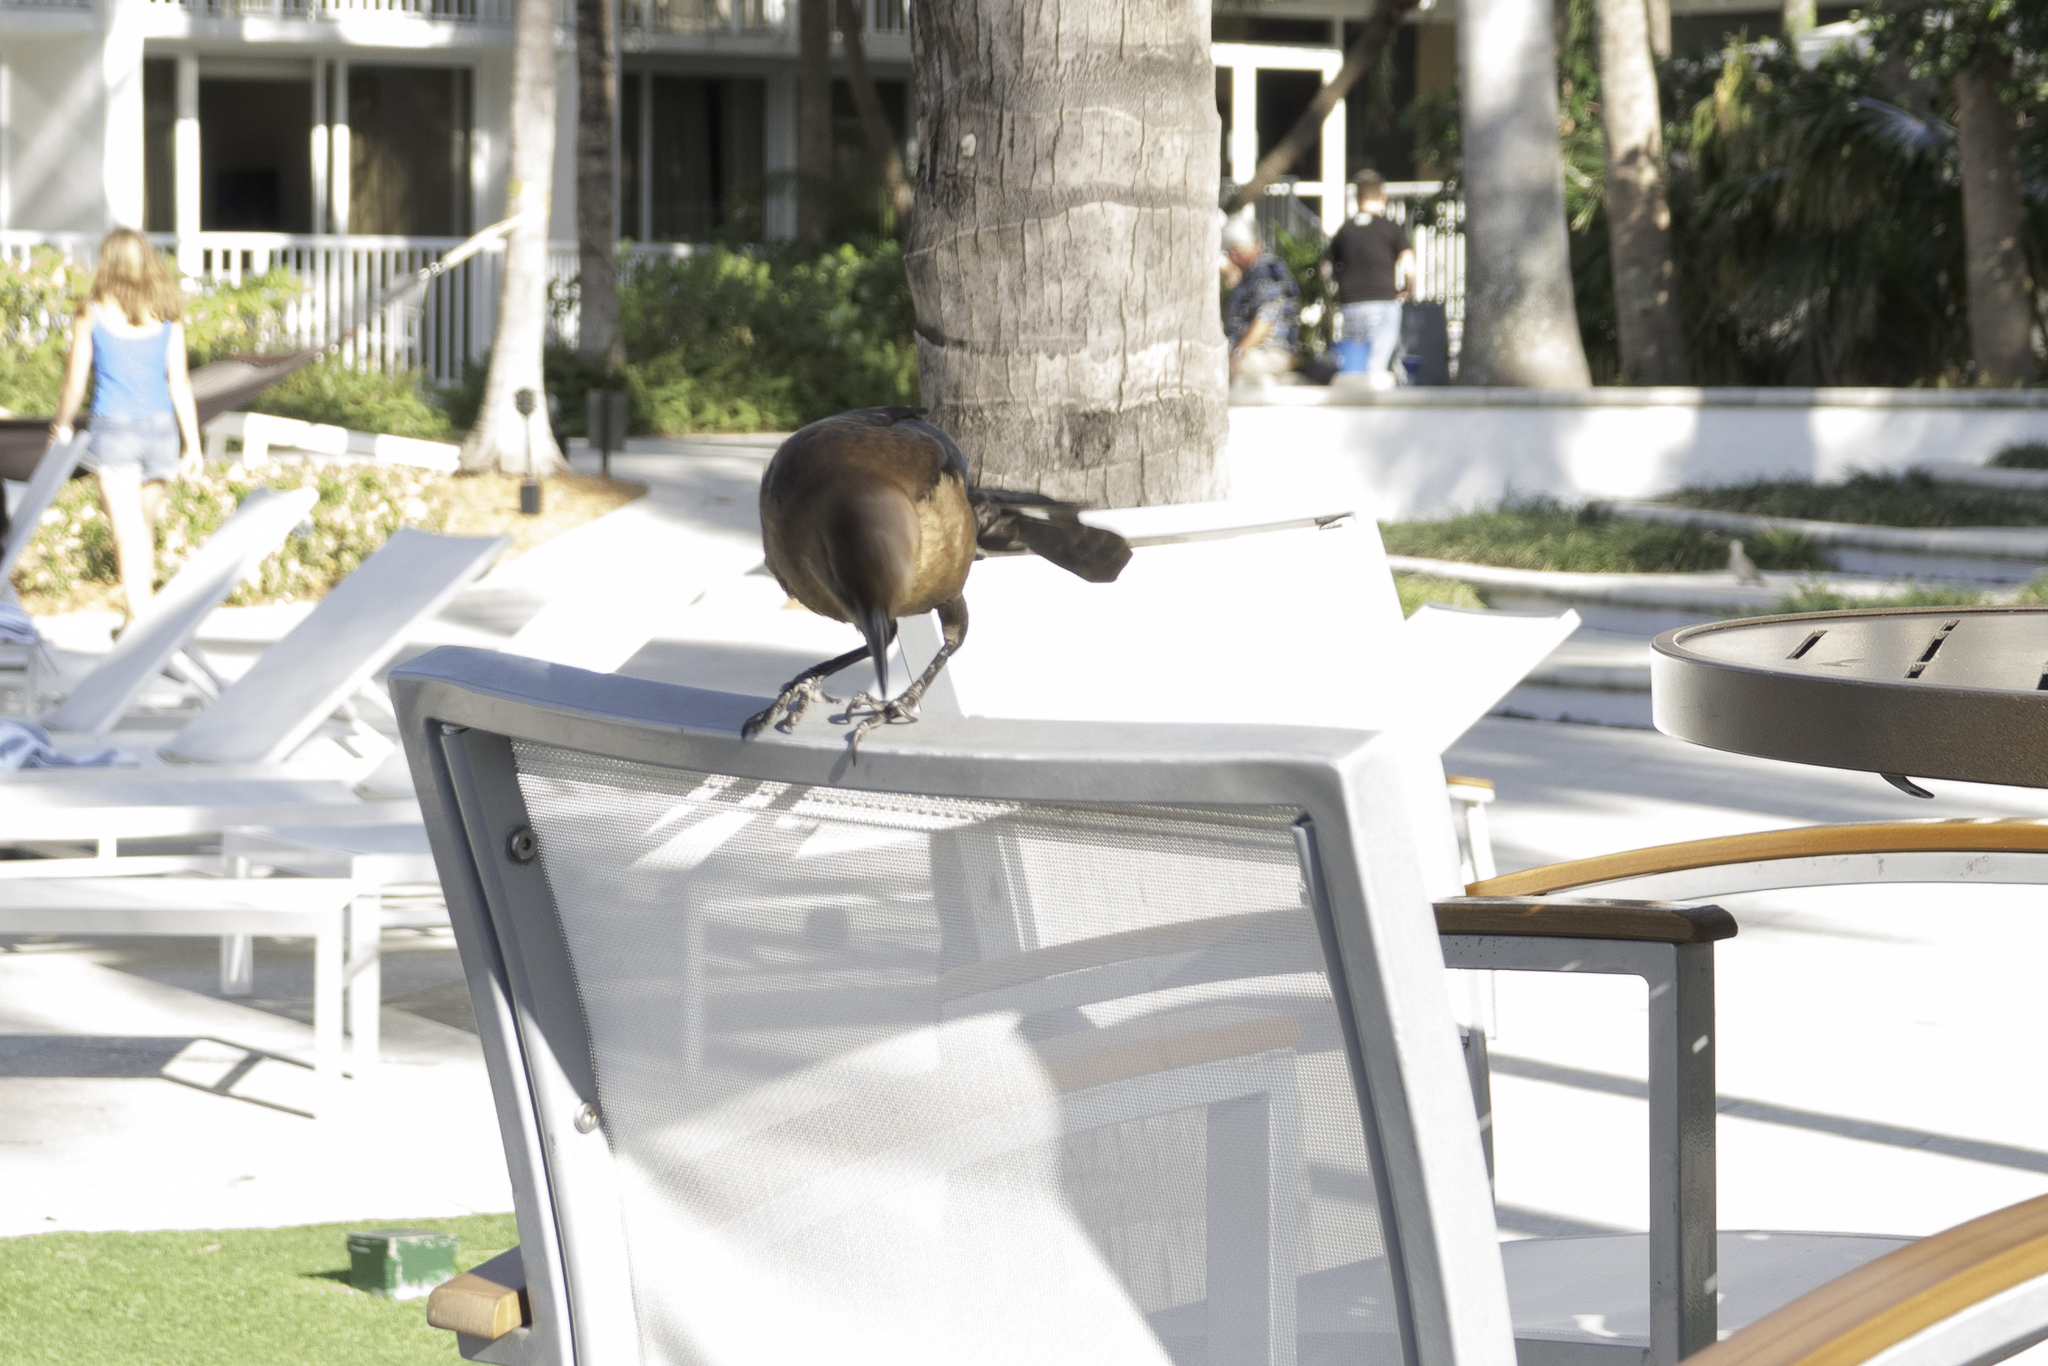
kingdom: Animalia
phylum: Chordata
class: Aves
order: Passeriformes
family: Icteridae
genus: Quiscalus
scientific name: Quiscalus major
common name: Boat-tailed grackle
